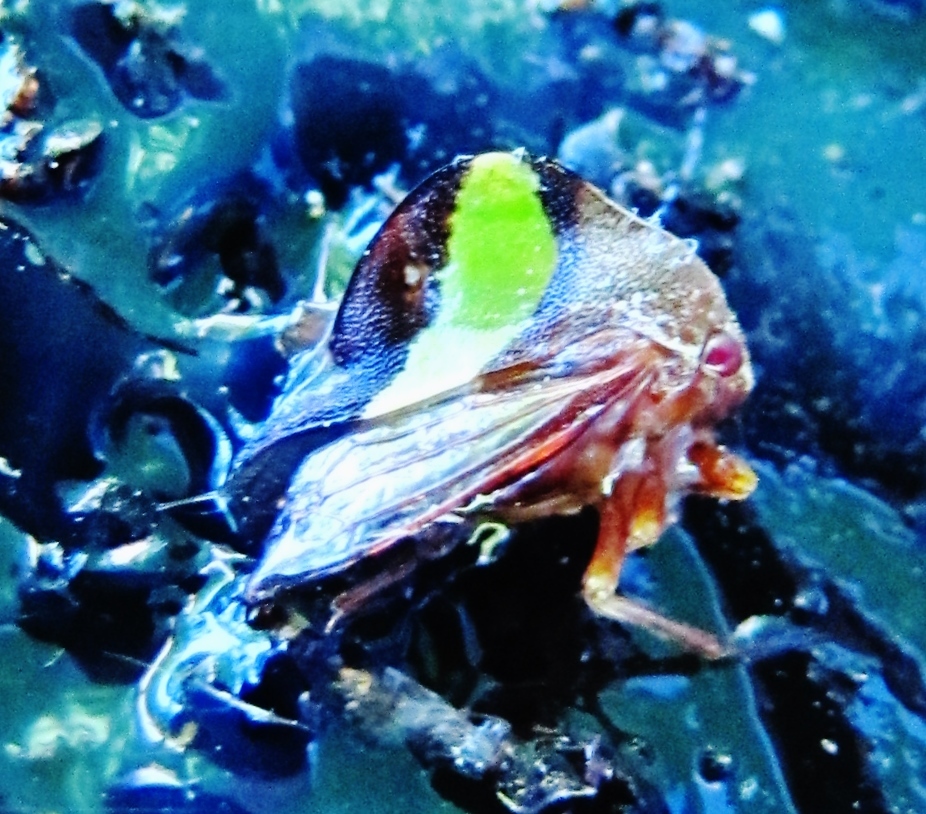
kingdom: Animalia
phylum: Arthropoda
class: Insecta
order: Hemiptera
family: Membracidae
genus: Smilia
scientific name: Smilia fasciata
